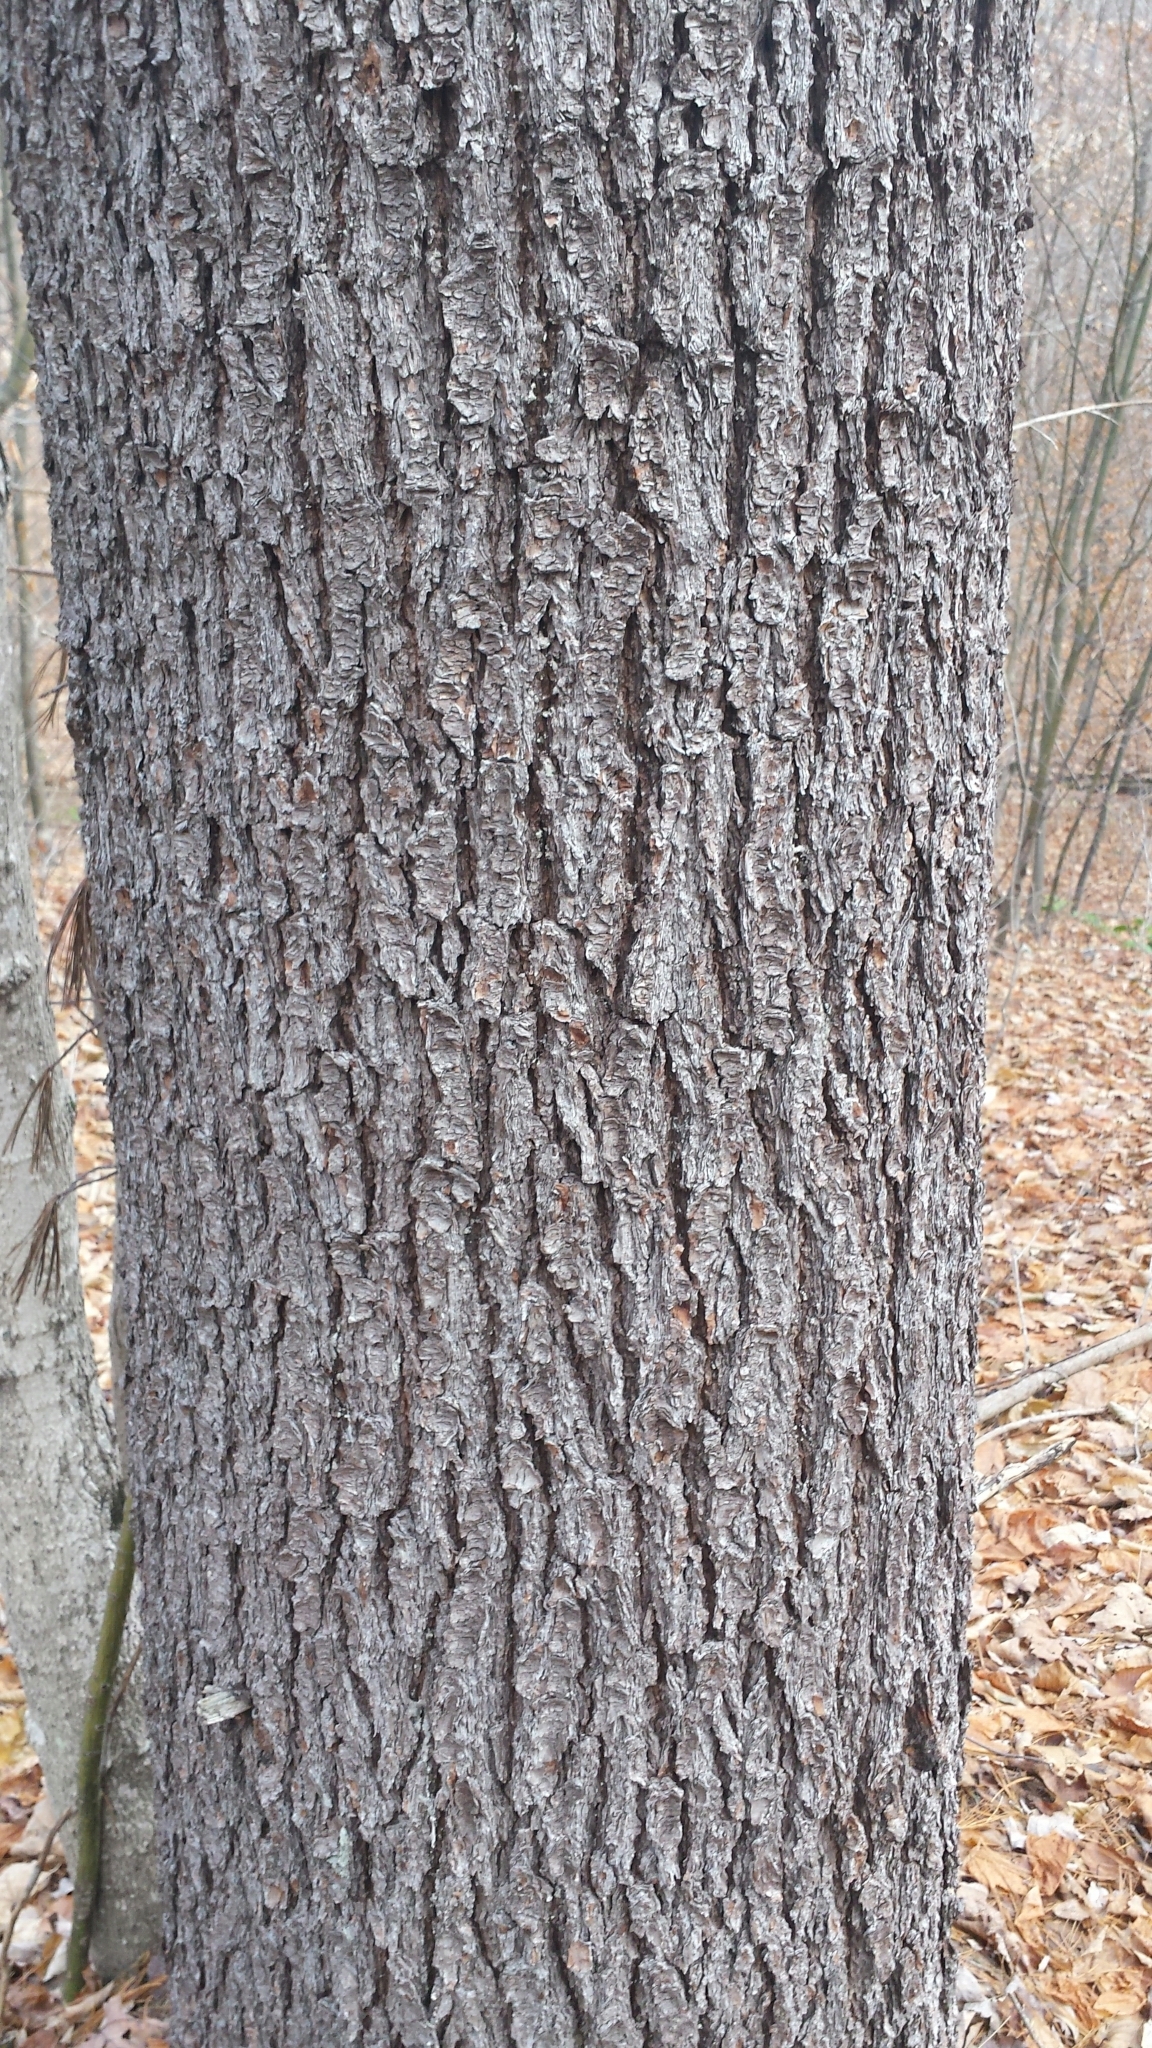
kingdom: Plantae
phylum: Tracheophyta
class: Pinopsida
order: Pinales
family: Pinaceae
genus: Pinus
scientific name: Pinus strobus
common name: Weymouth pine
